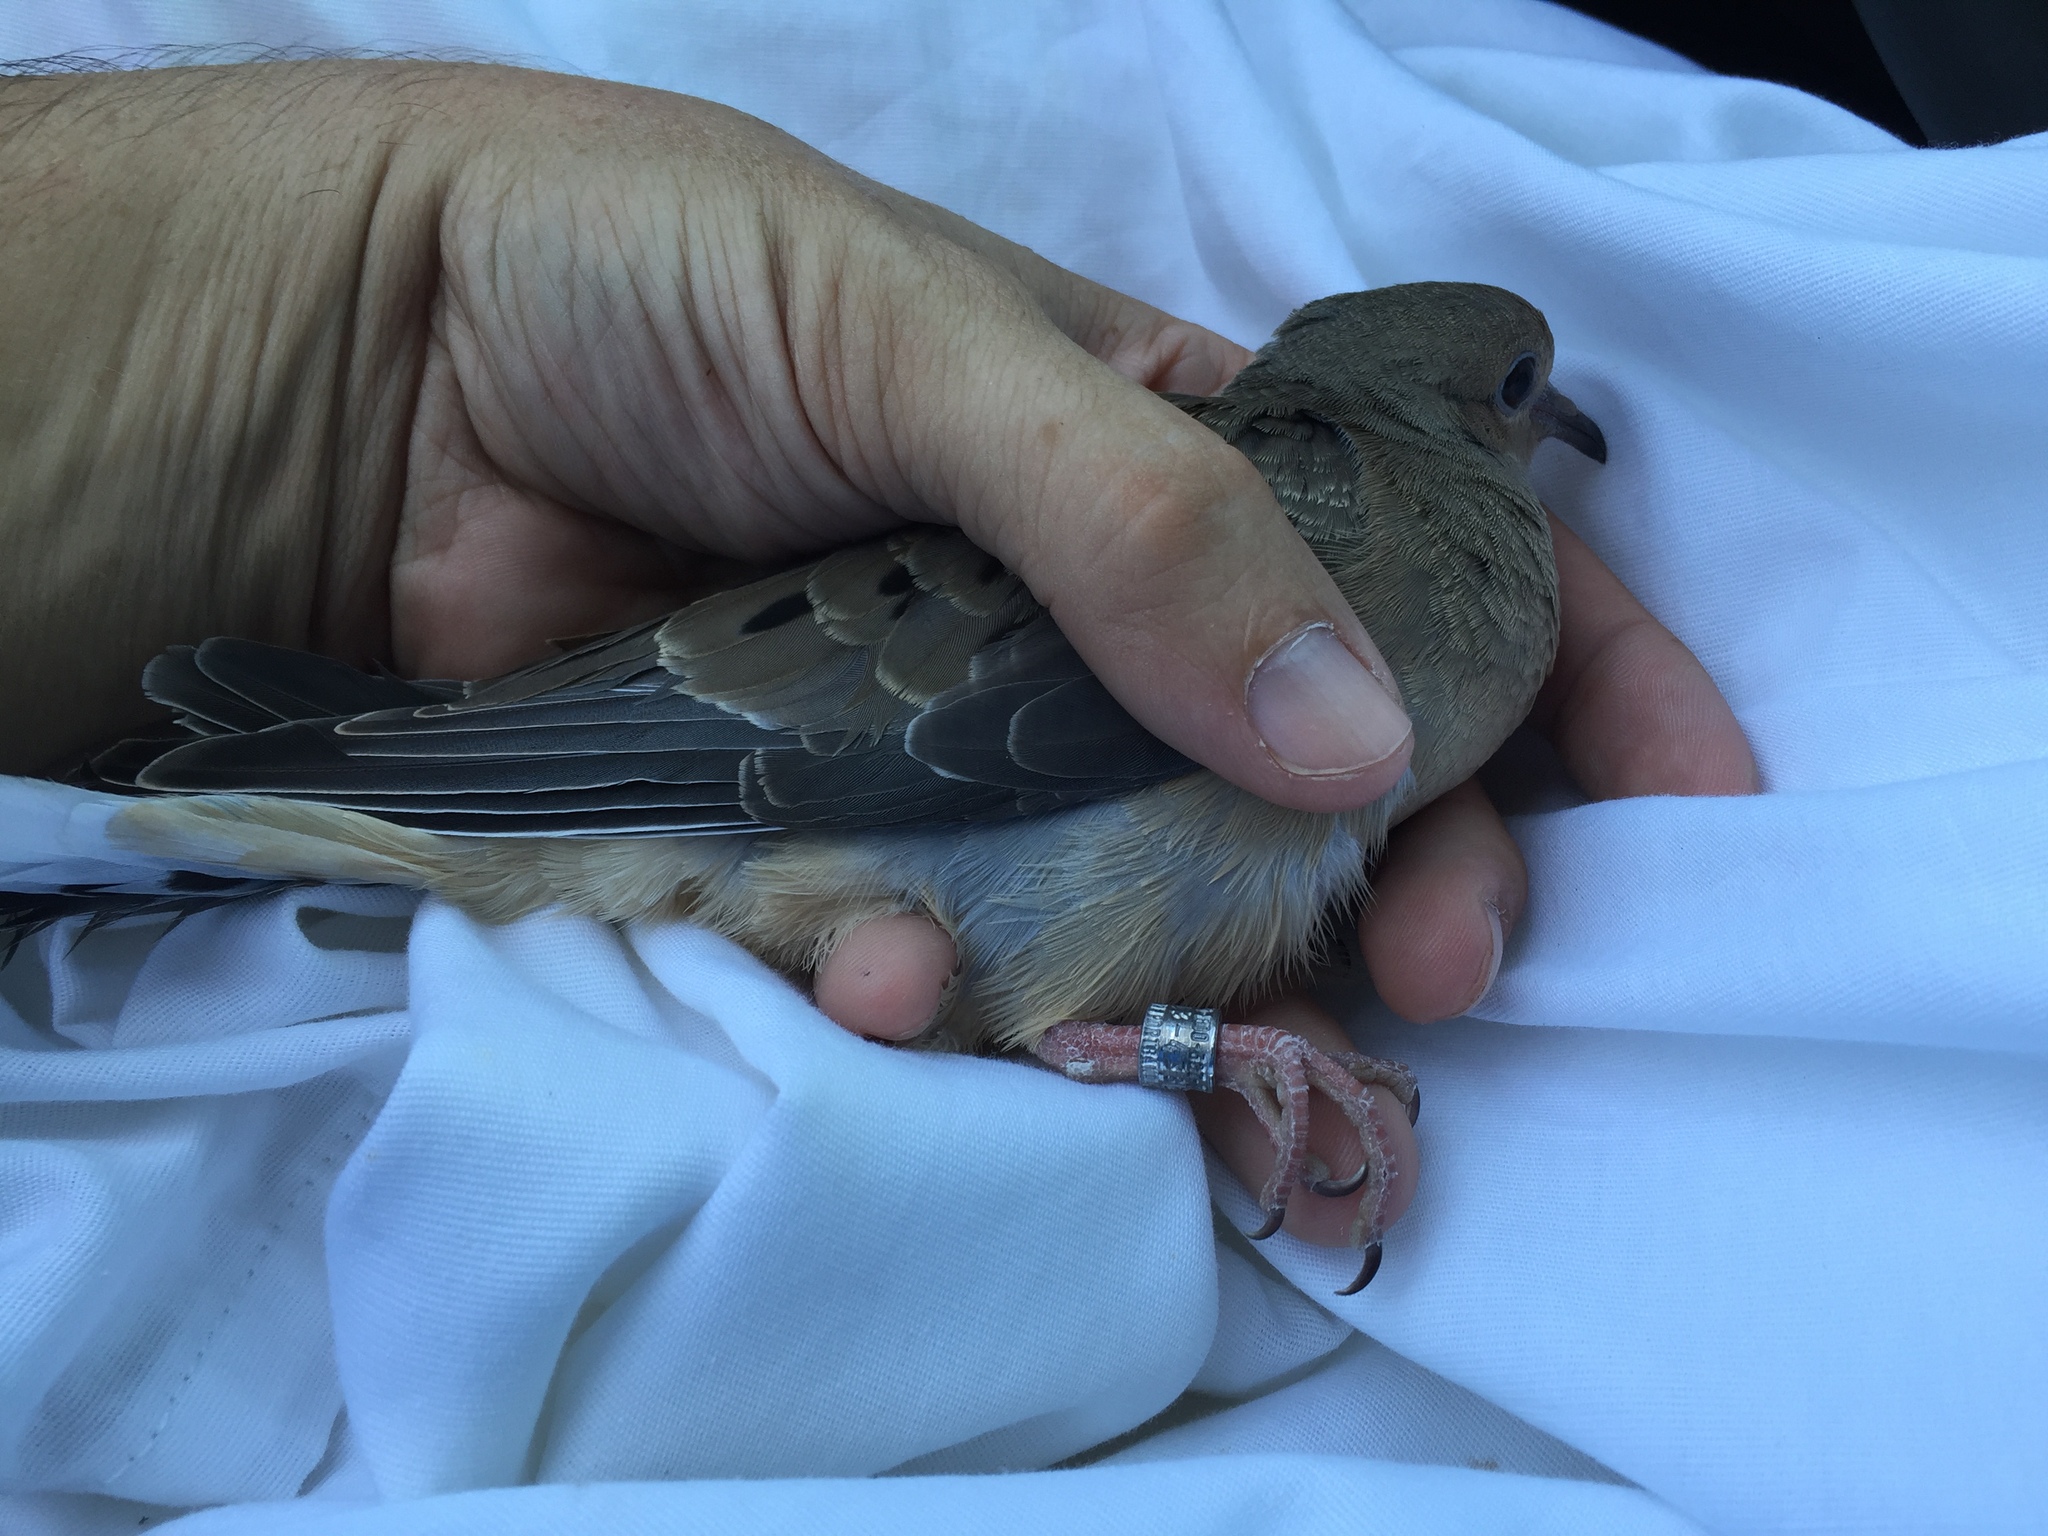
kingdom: Animalia
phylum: Chordata
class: Aves
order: Columbiformes
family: Columbidae
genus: Zenaida
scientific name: Zenaida macroura
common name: Mourning dove
